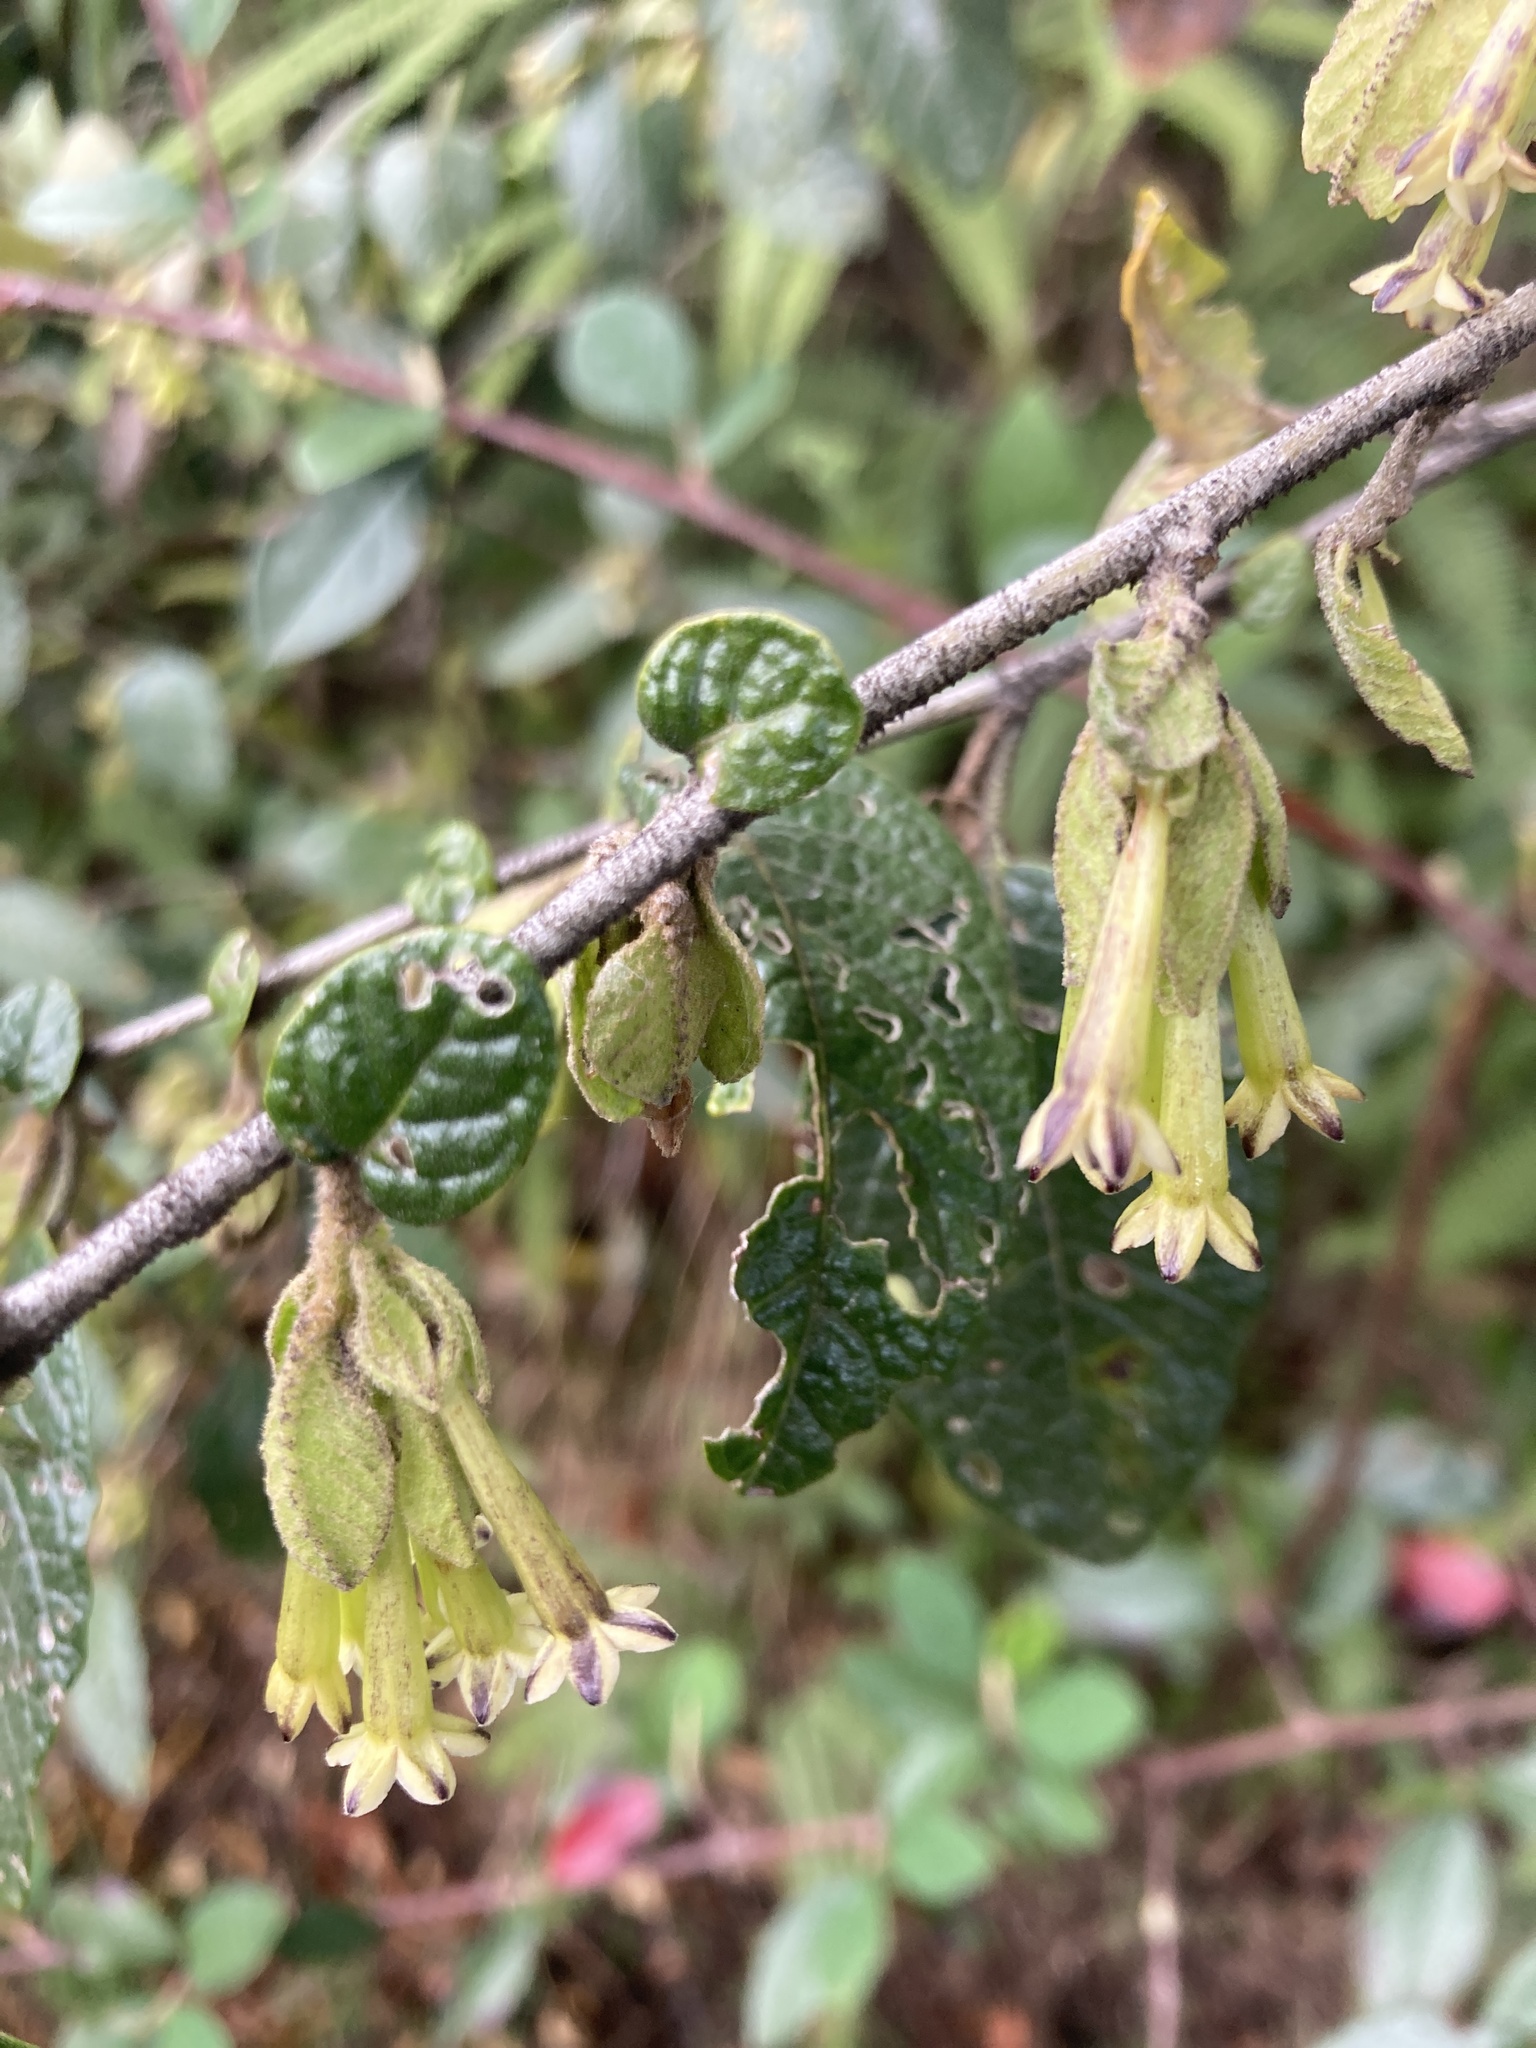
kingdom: Plantae
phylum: Tracheophyta
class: Magnoliopsida
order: Solanales
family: Solanaceae
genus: Cestrum
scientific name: Cestrum tomentosum
